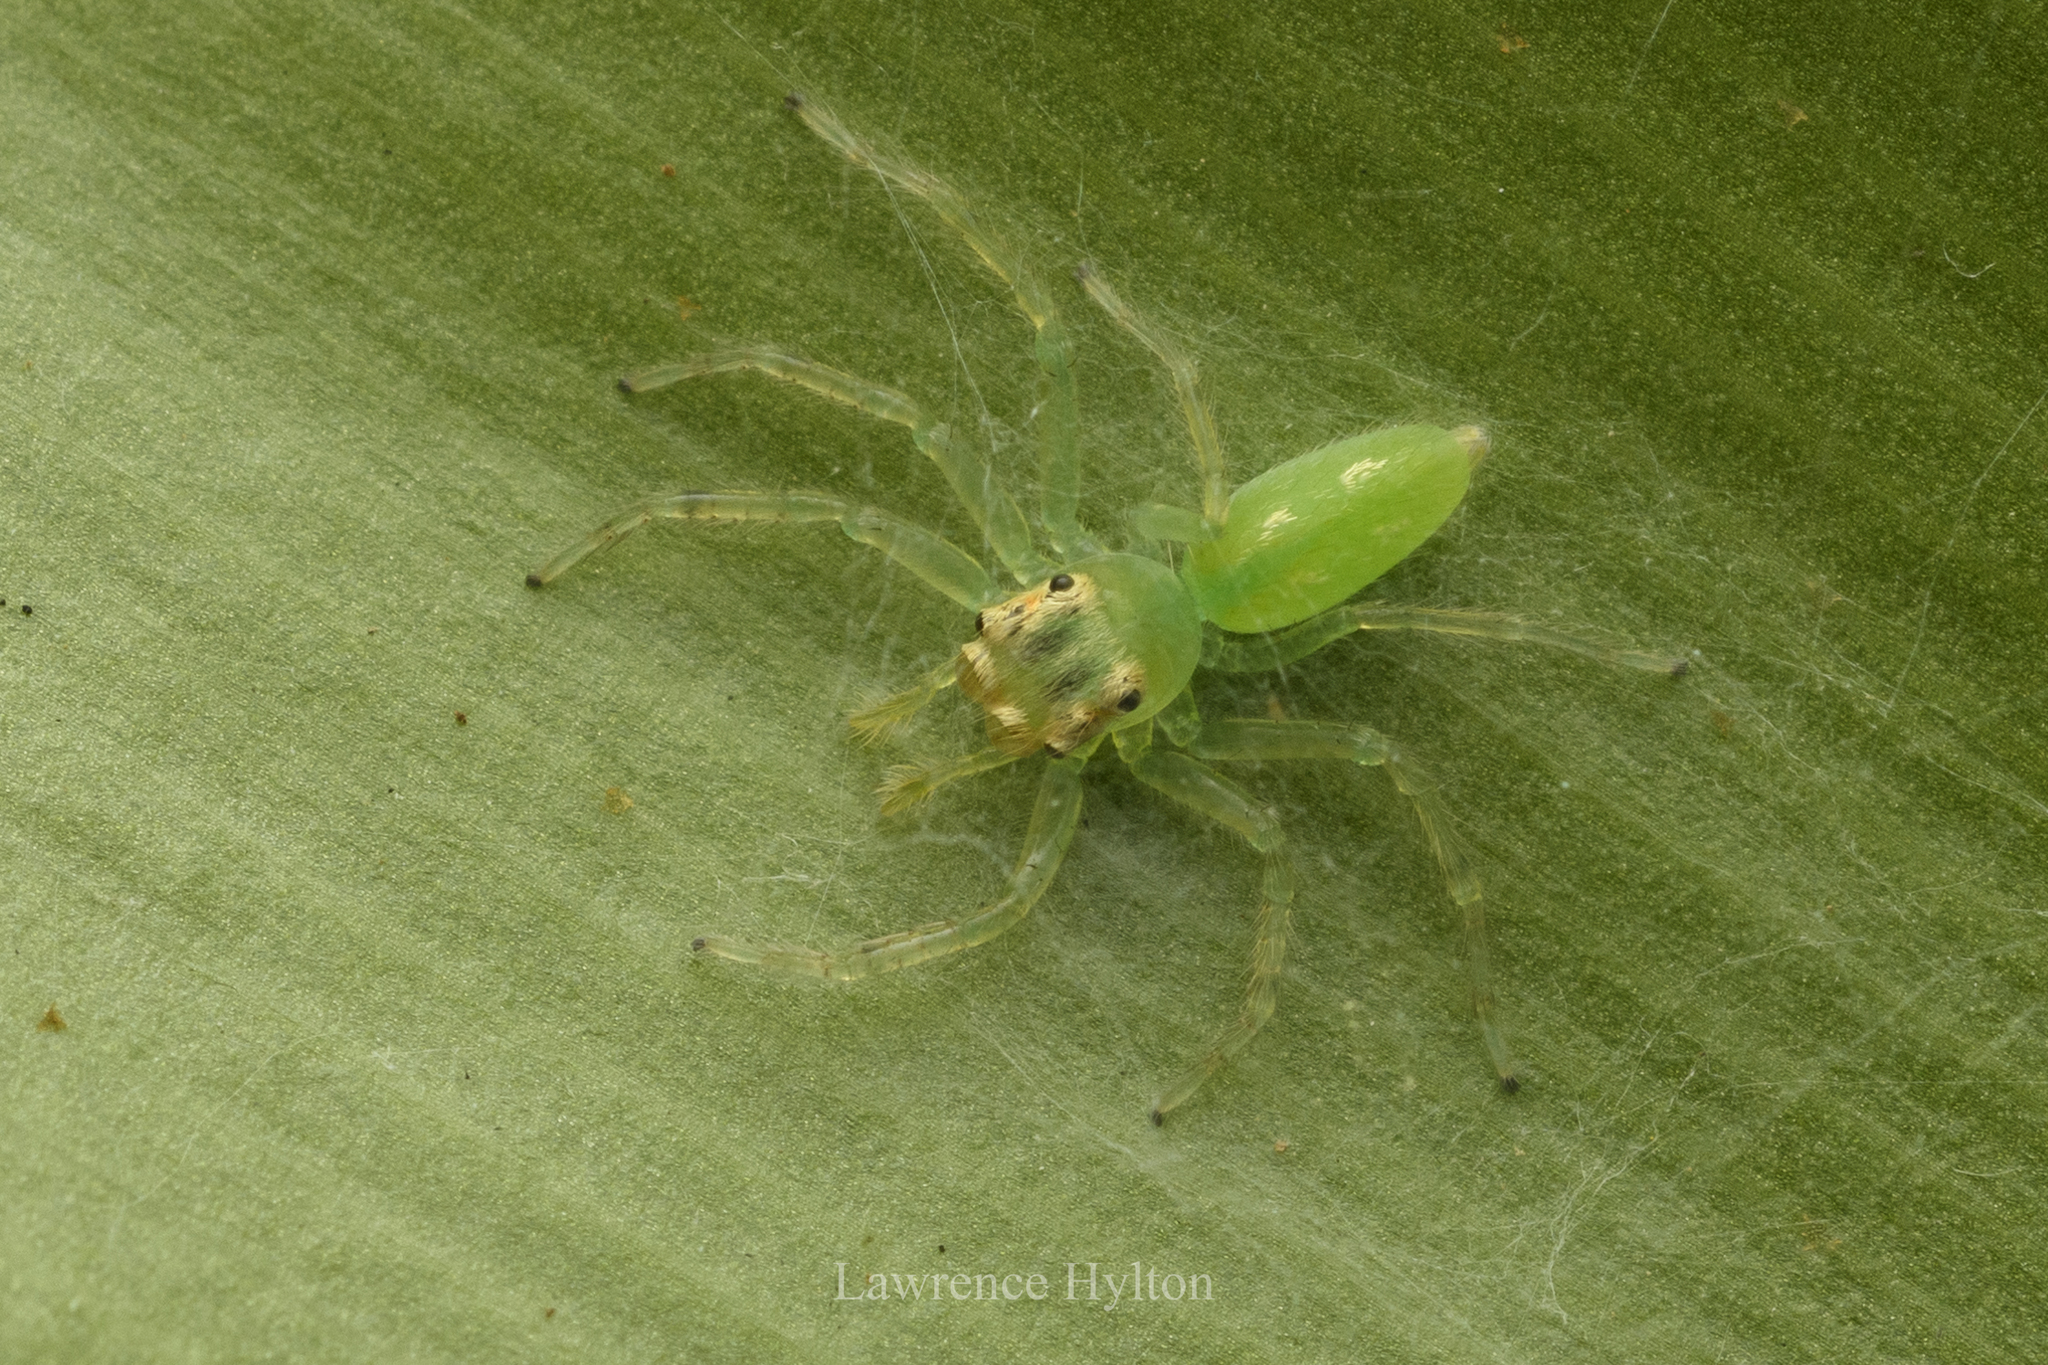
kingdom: Animalia
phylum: Arthropoda
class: Arachnida
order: Araneae
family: Salticidae
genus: Epeus
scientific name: Epeus glorius
